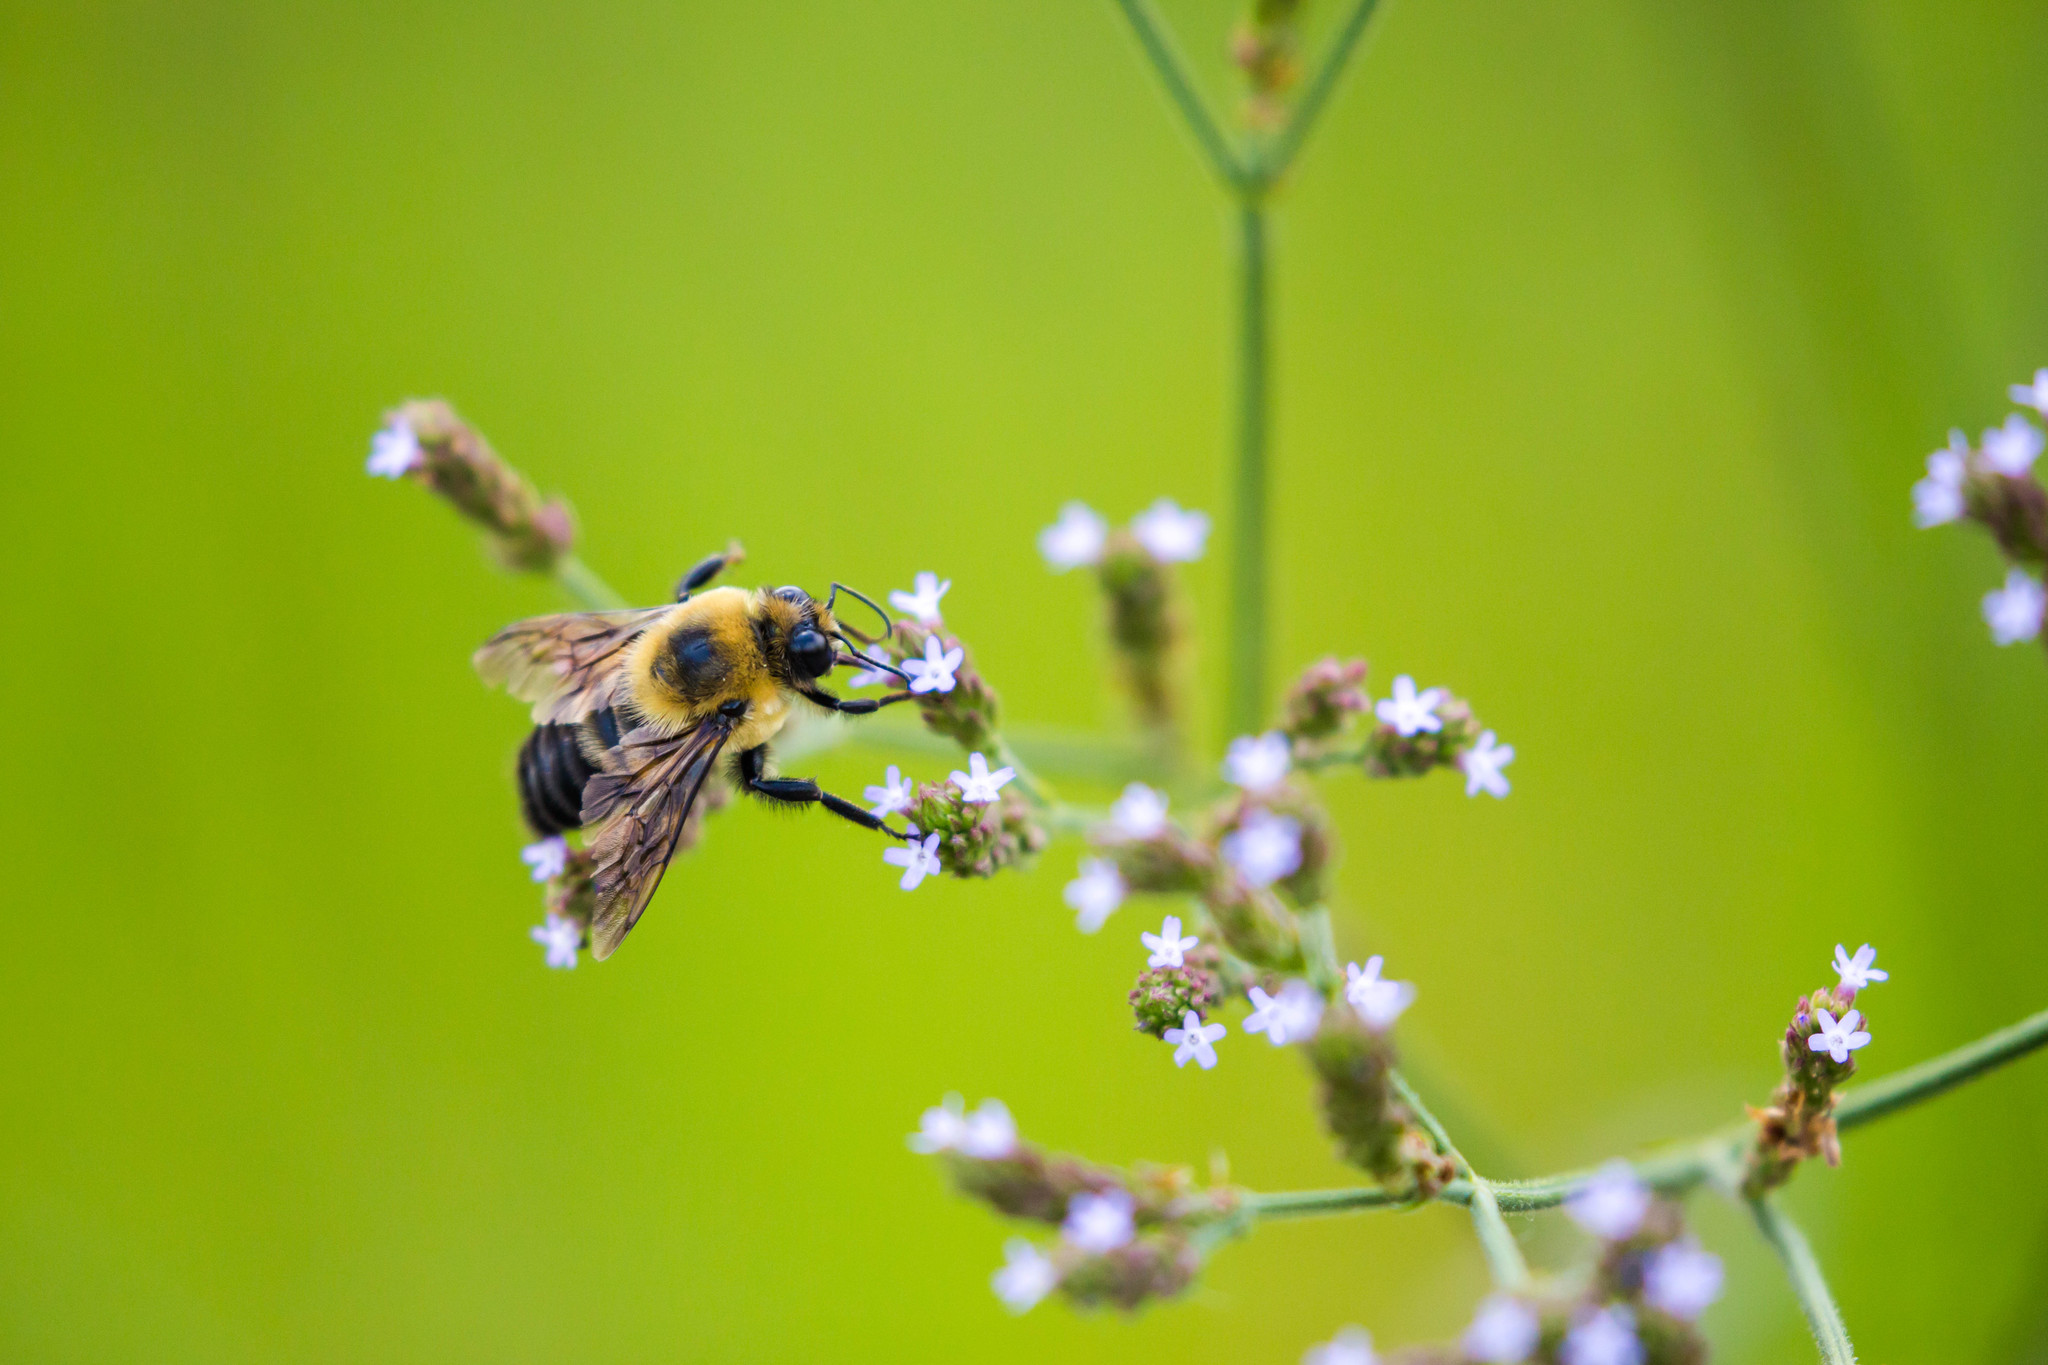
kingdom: Animalia
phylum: Arthropoda
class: Insecta
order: Hymenoptera
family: Apidae
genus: Bombus
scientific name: Bombus griseocollis
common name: Brown-belted bumble bee
